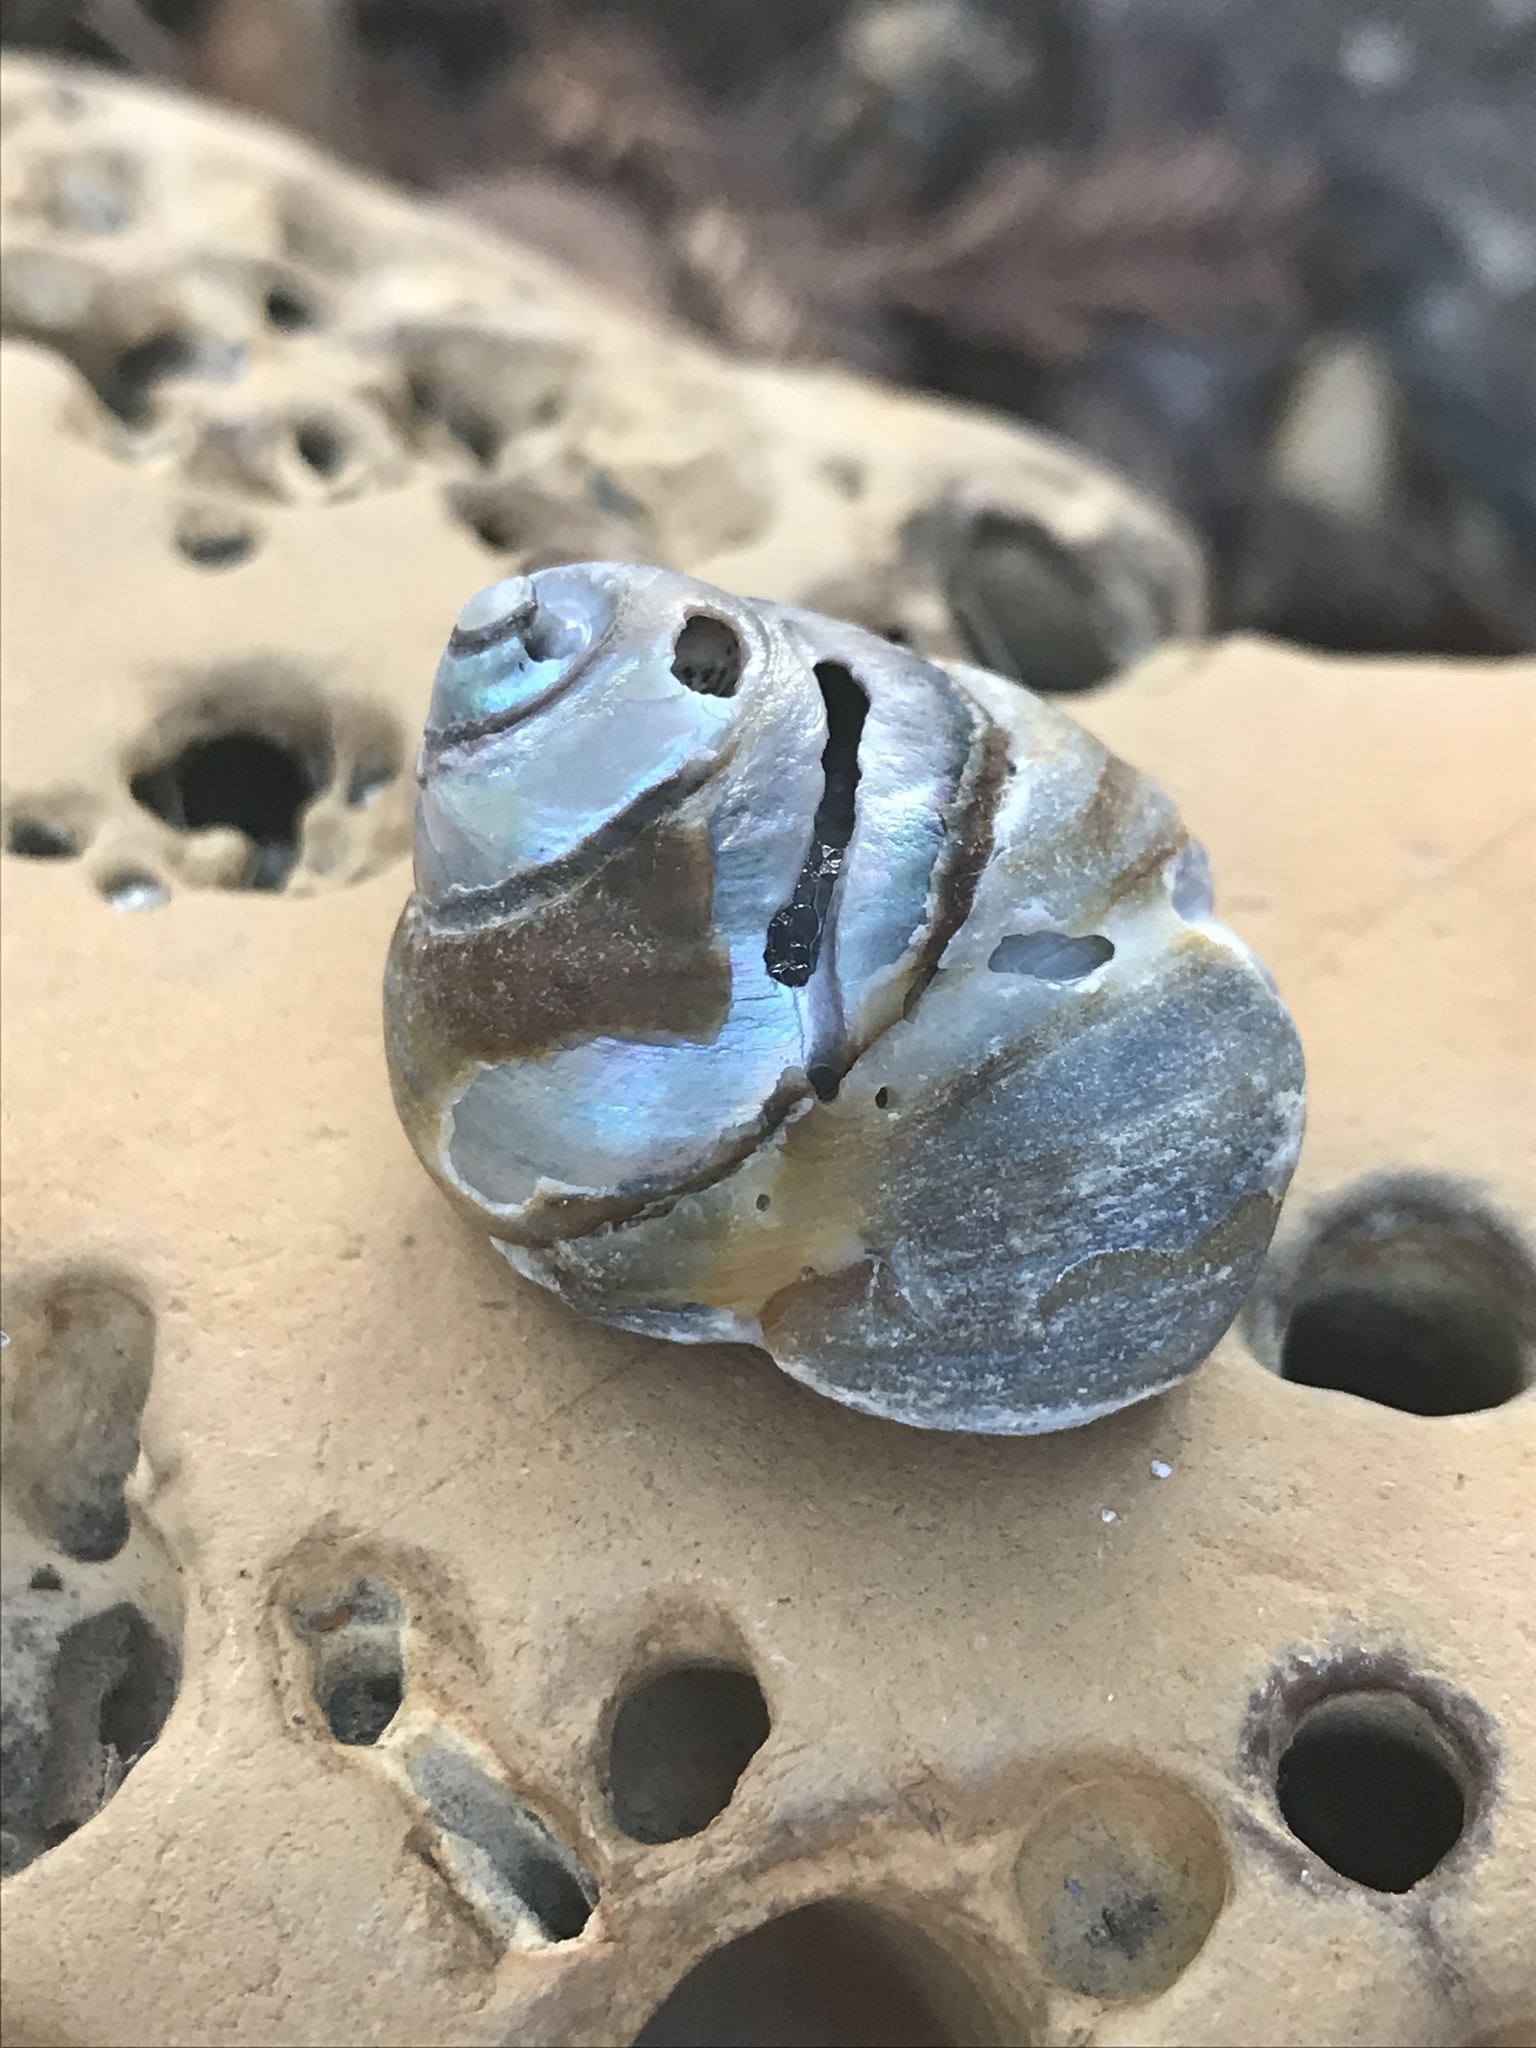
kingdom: Animalia
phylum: Mollusca
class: Gastropoda
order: Trochida
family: Tegulidae
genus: Tegula
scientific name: Tegula brunnea
